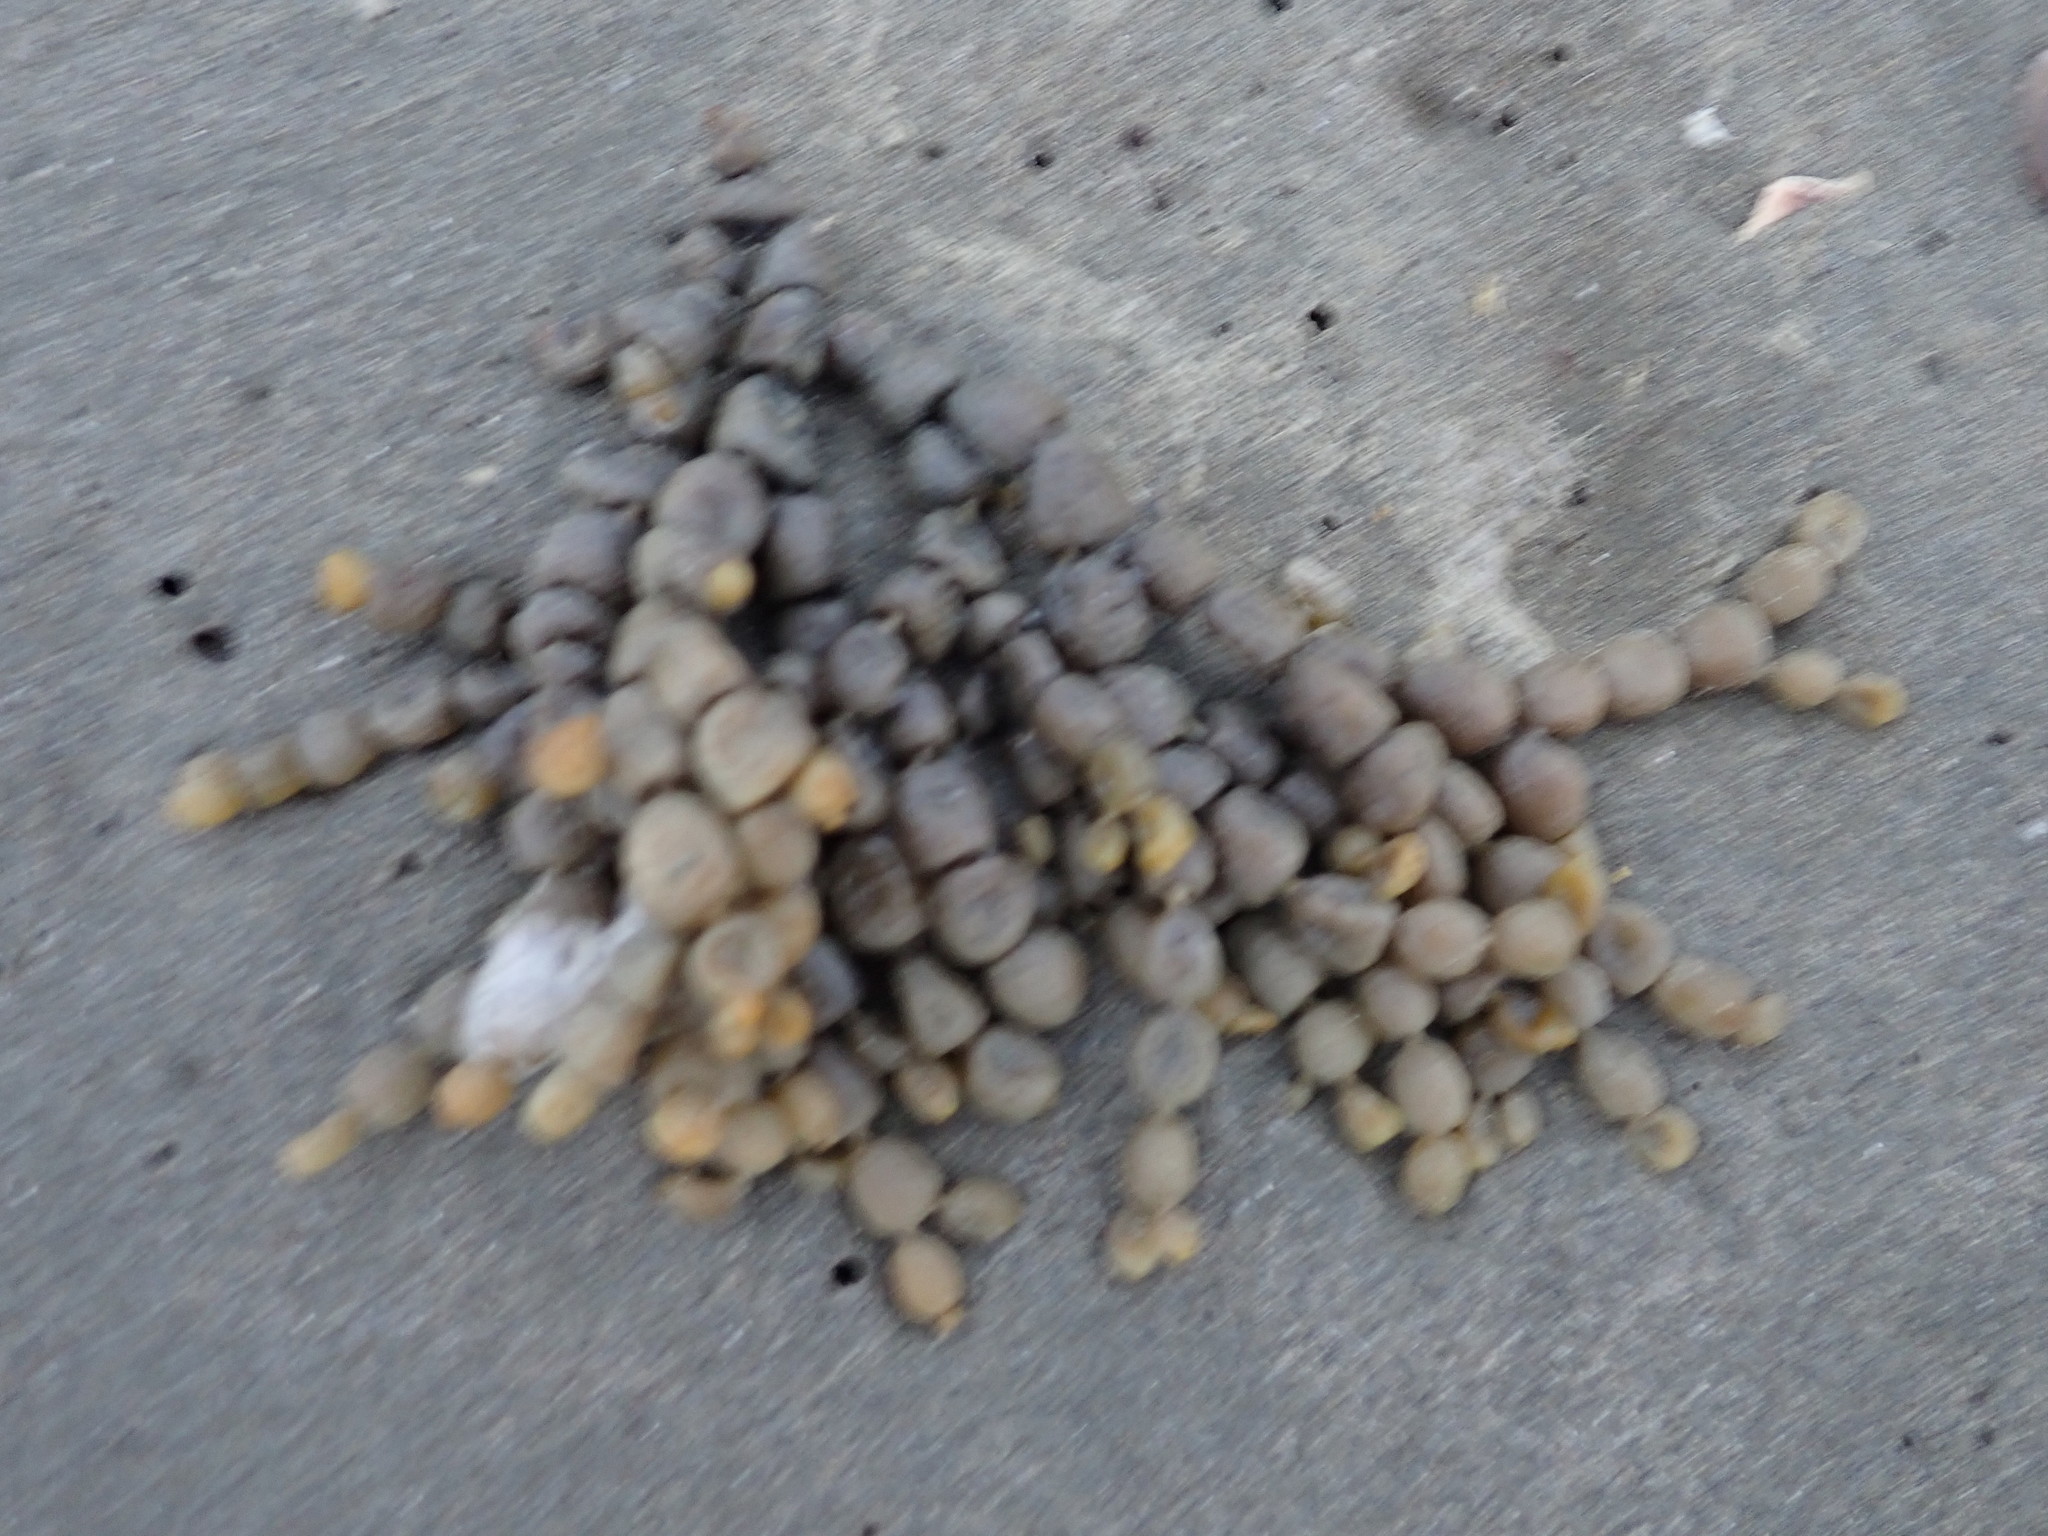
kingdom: Chromista
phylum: Ochrophyta
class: Phaeophyceae
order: Fucales
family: Hormosiraceae
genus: Hormosira
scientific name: Hormosira banksii
